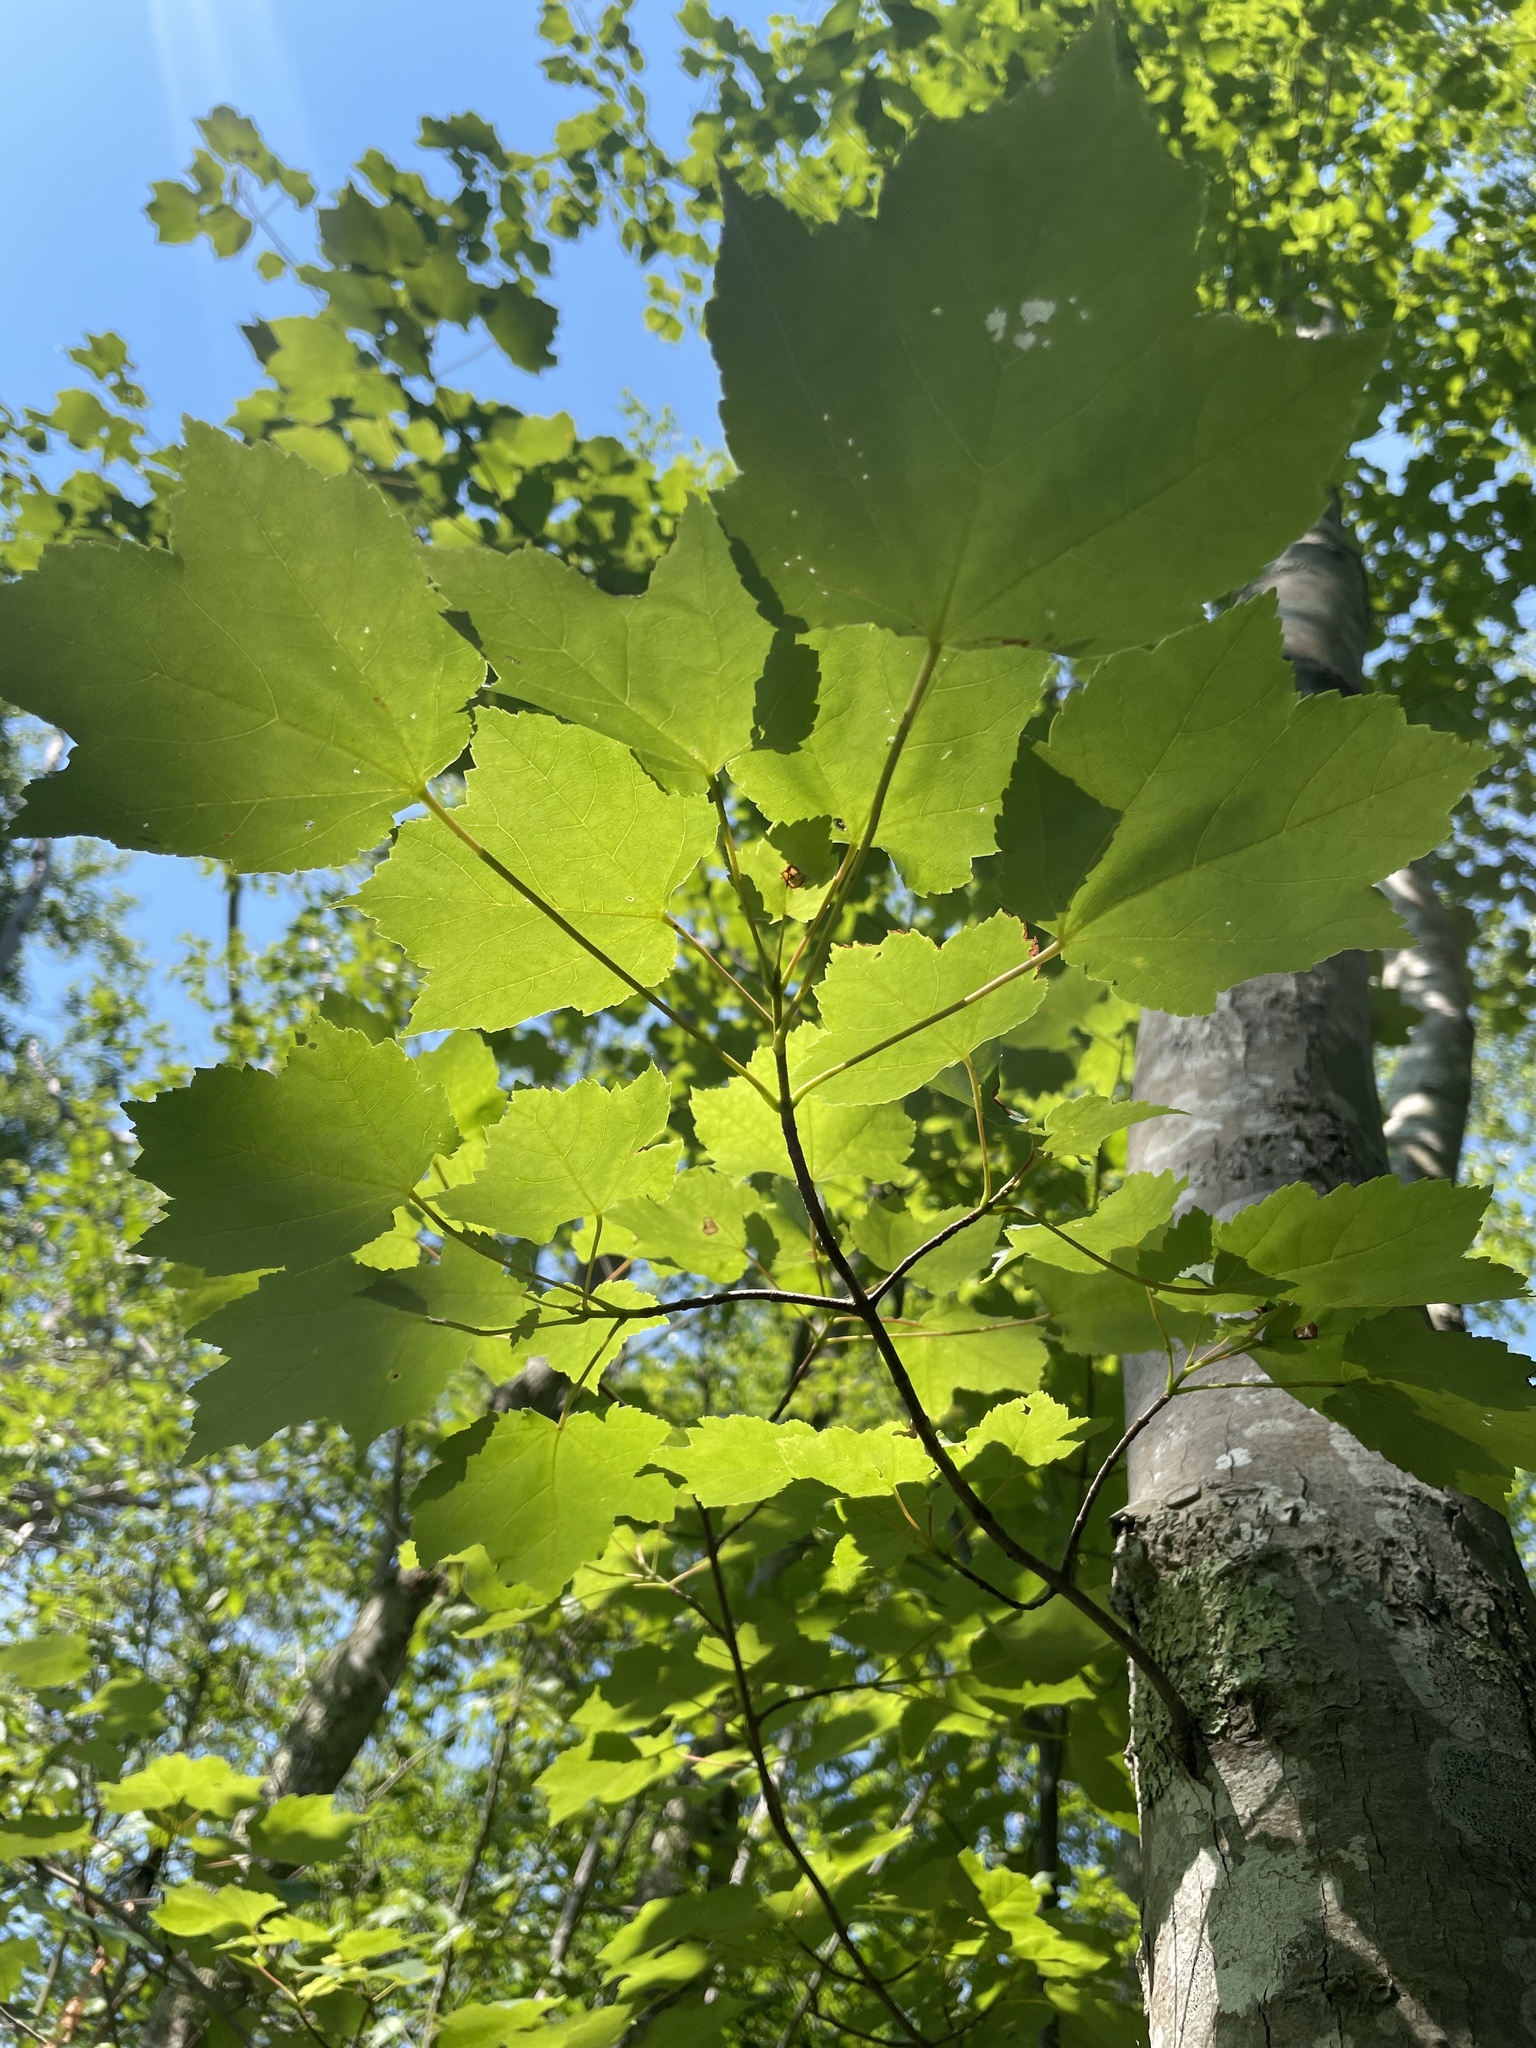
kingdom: Plantae
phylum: Tracheophyta
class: Magnoliopsida
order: Sapindales
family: Sapindaceae
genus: Acer
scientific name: Acer rubrum
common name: Red maple
